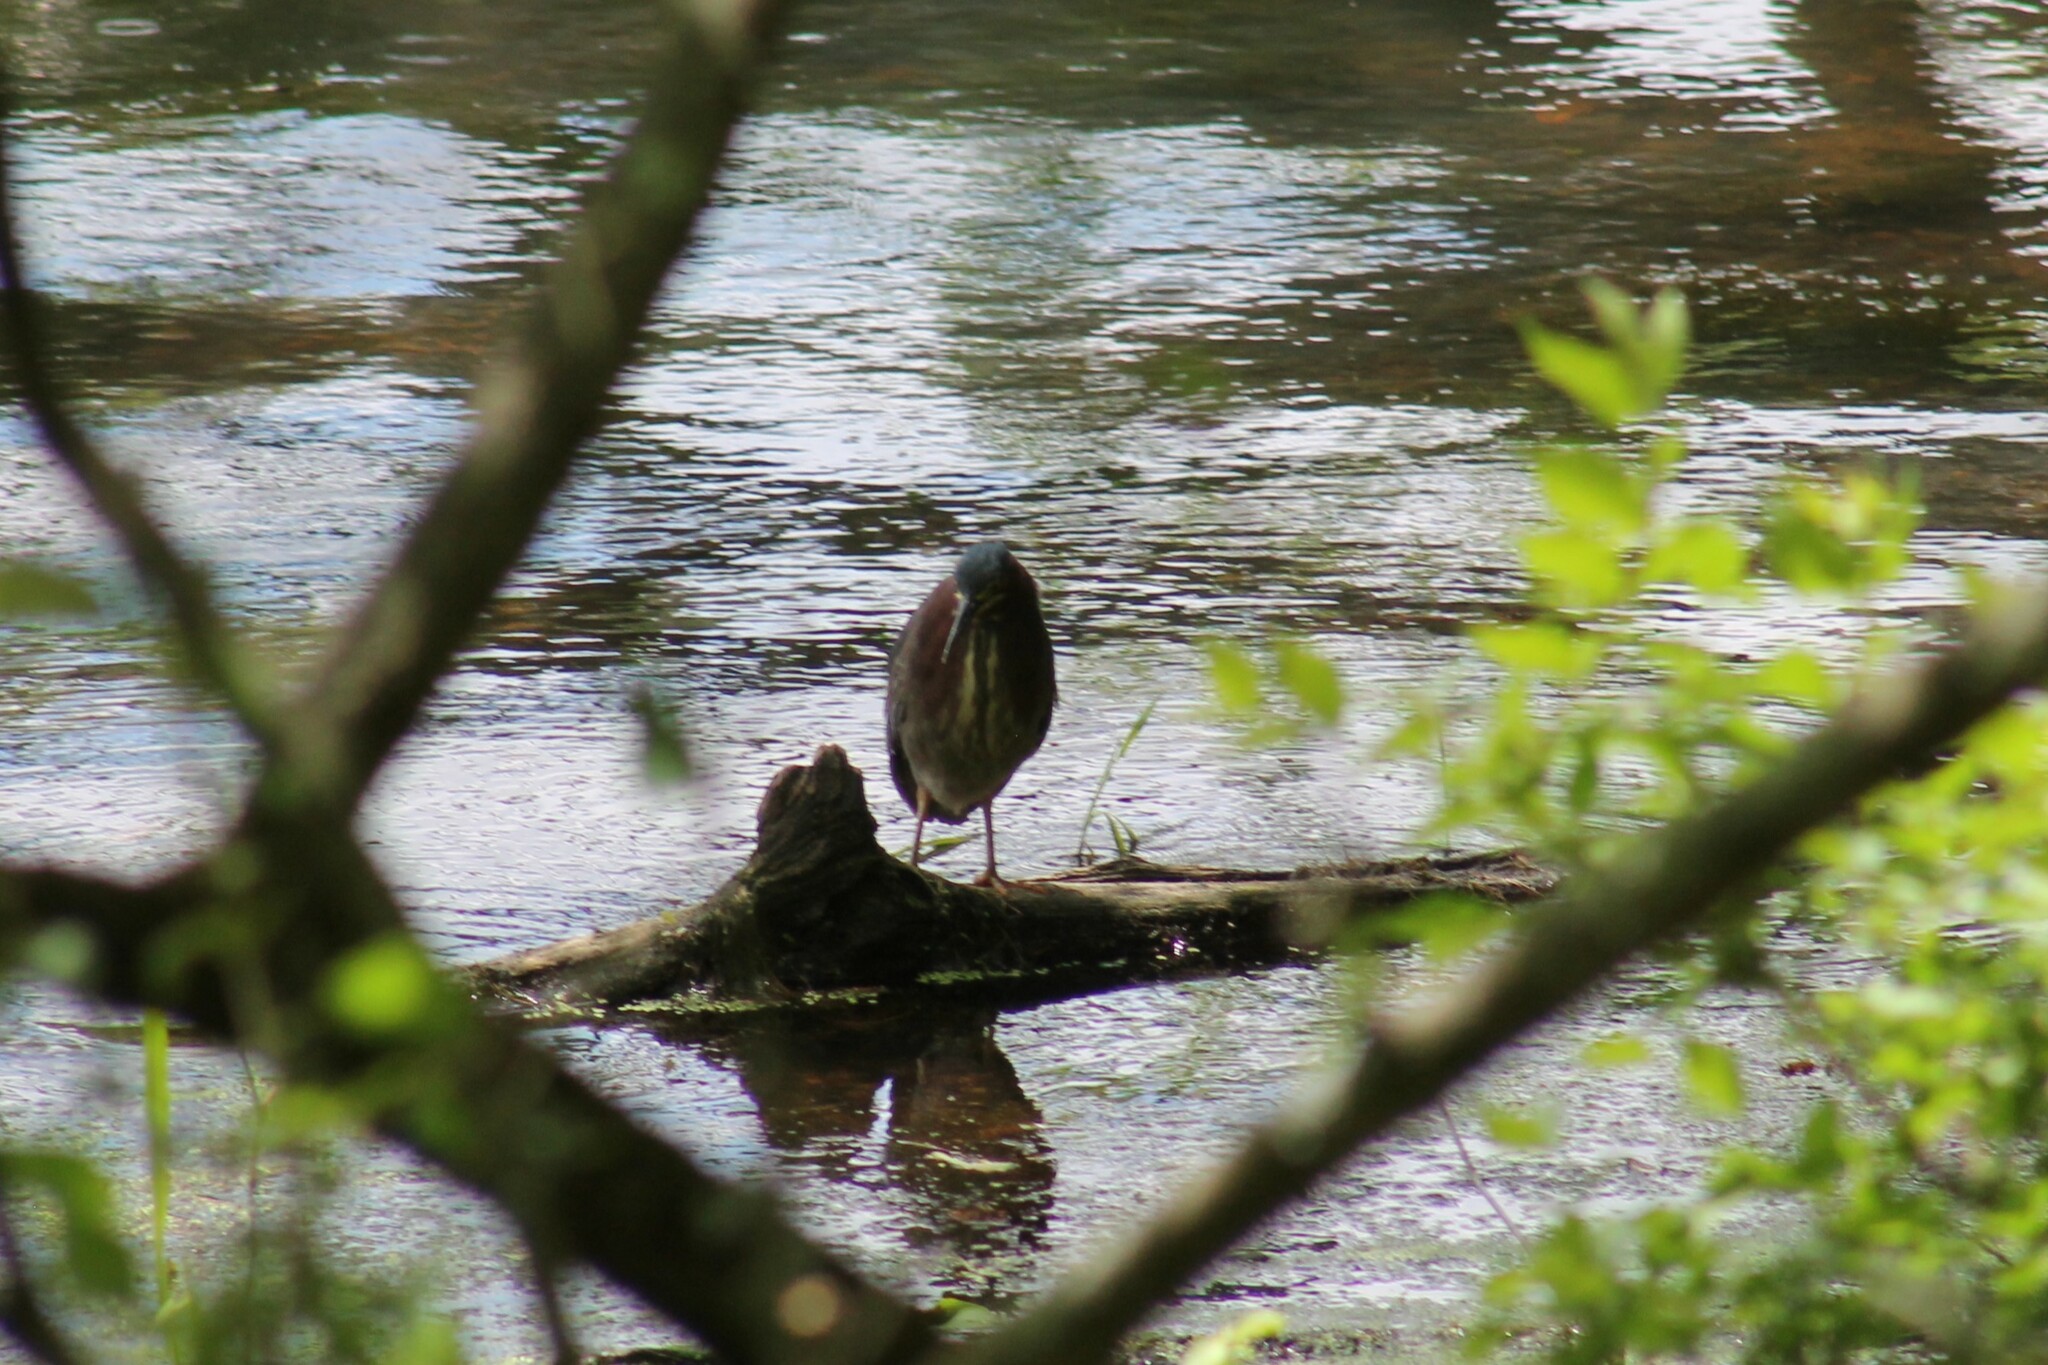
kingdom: Animalia
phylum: Chordata
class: Aves
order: Pelecaniformes
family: Ardeidae
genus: Butorides
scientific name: Butorides virescens
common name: Green heron
